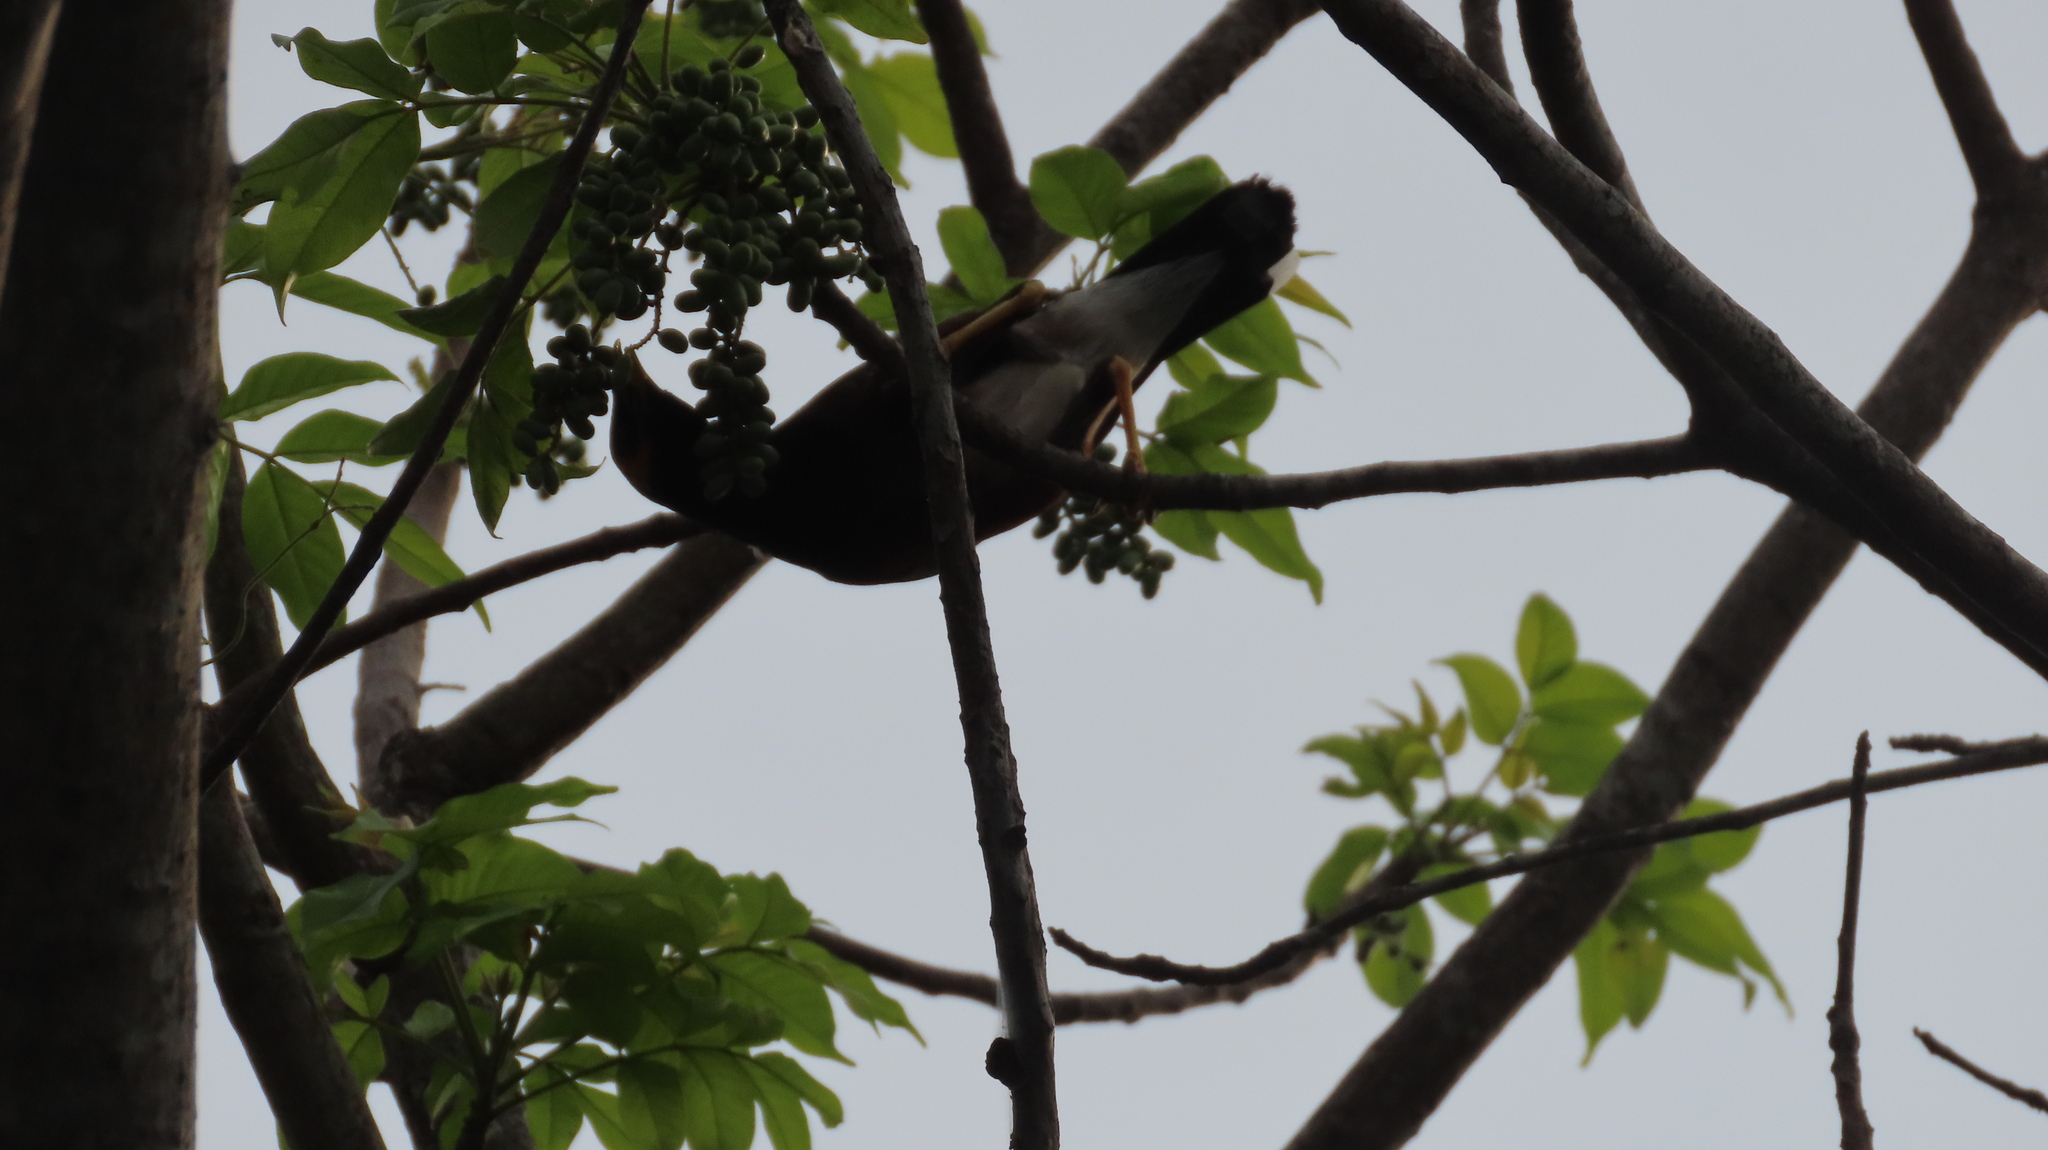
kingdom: Animalia
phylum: Chordata
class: Aves
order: Passeriformes
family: Sturnidae
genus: Acridotheres
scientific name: Acridotheres tristis
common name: Common myna
